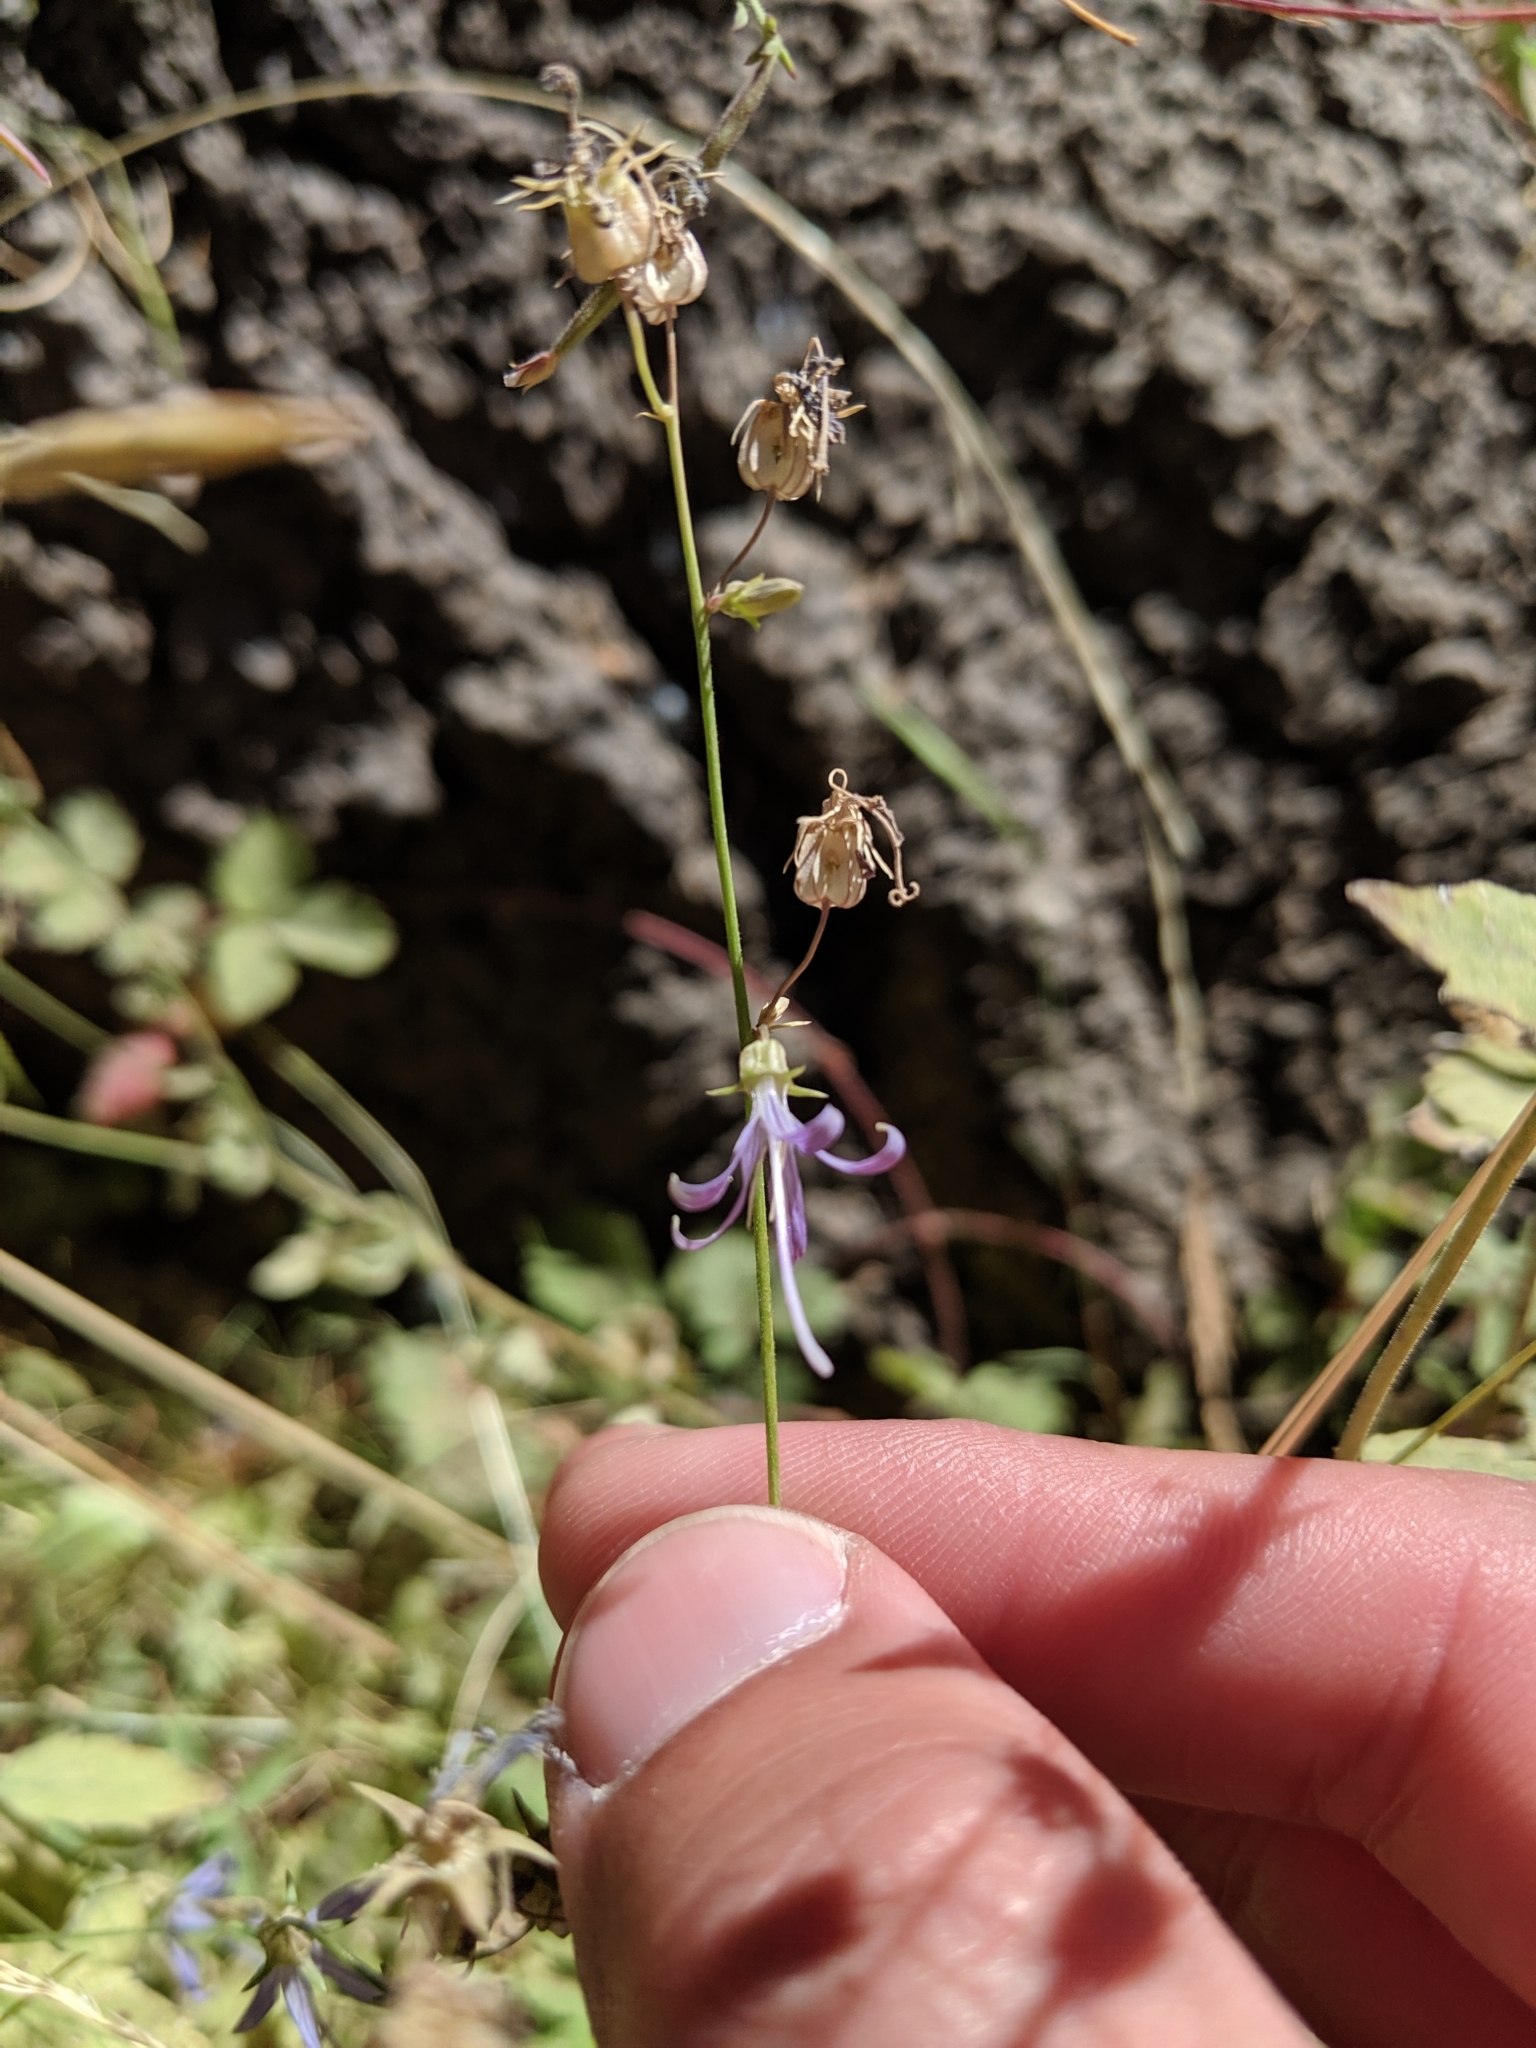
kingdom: Plantae
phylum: Tracheophyta
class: Magnoliopsida
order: Asterales
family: Campanulaceae
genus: Smithiastrum
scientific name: Smithiastrum prenanthoides
